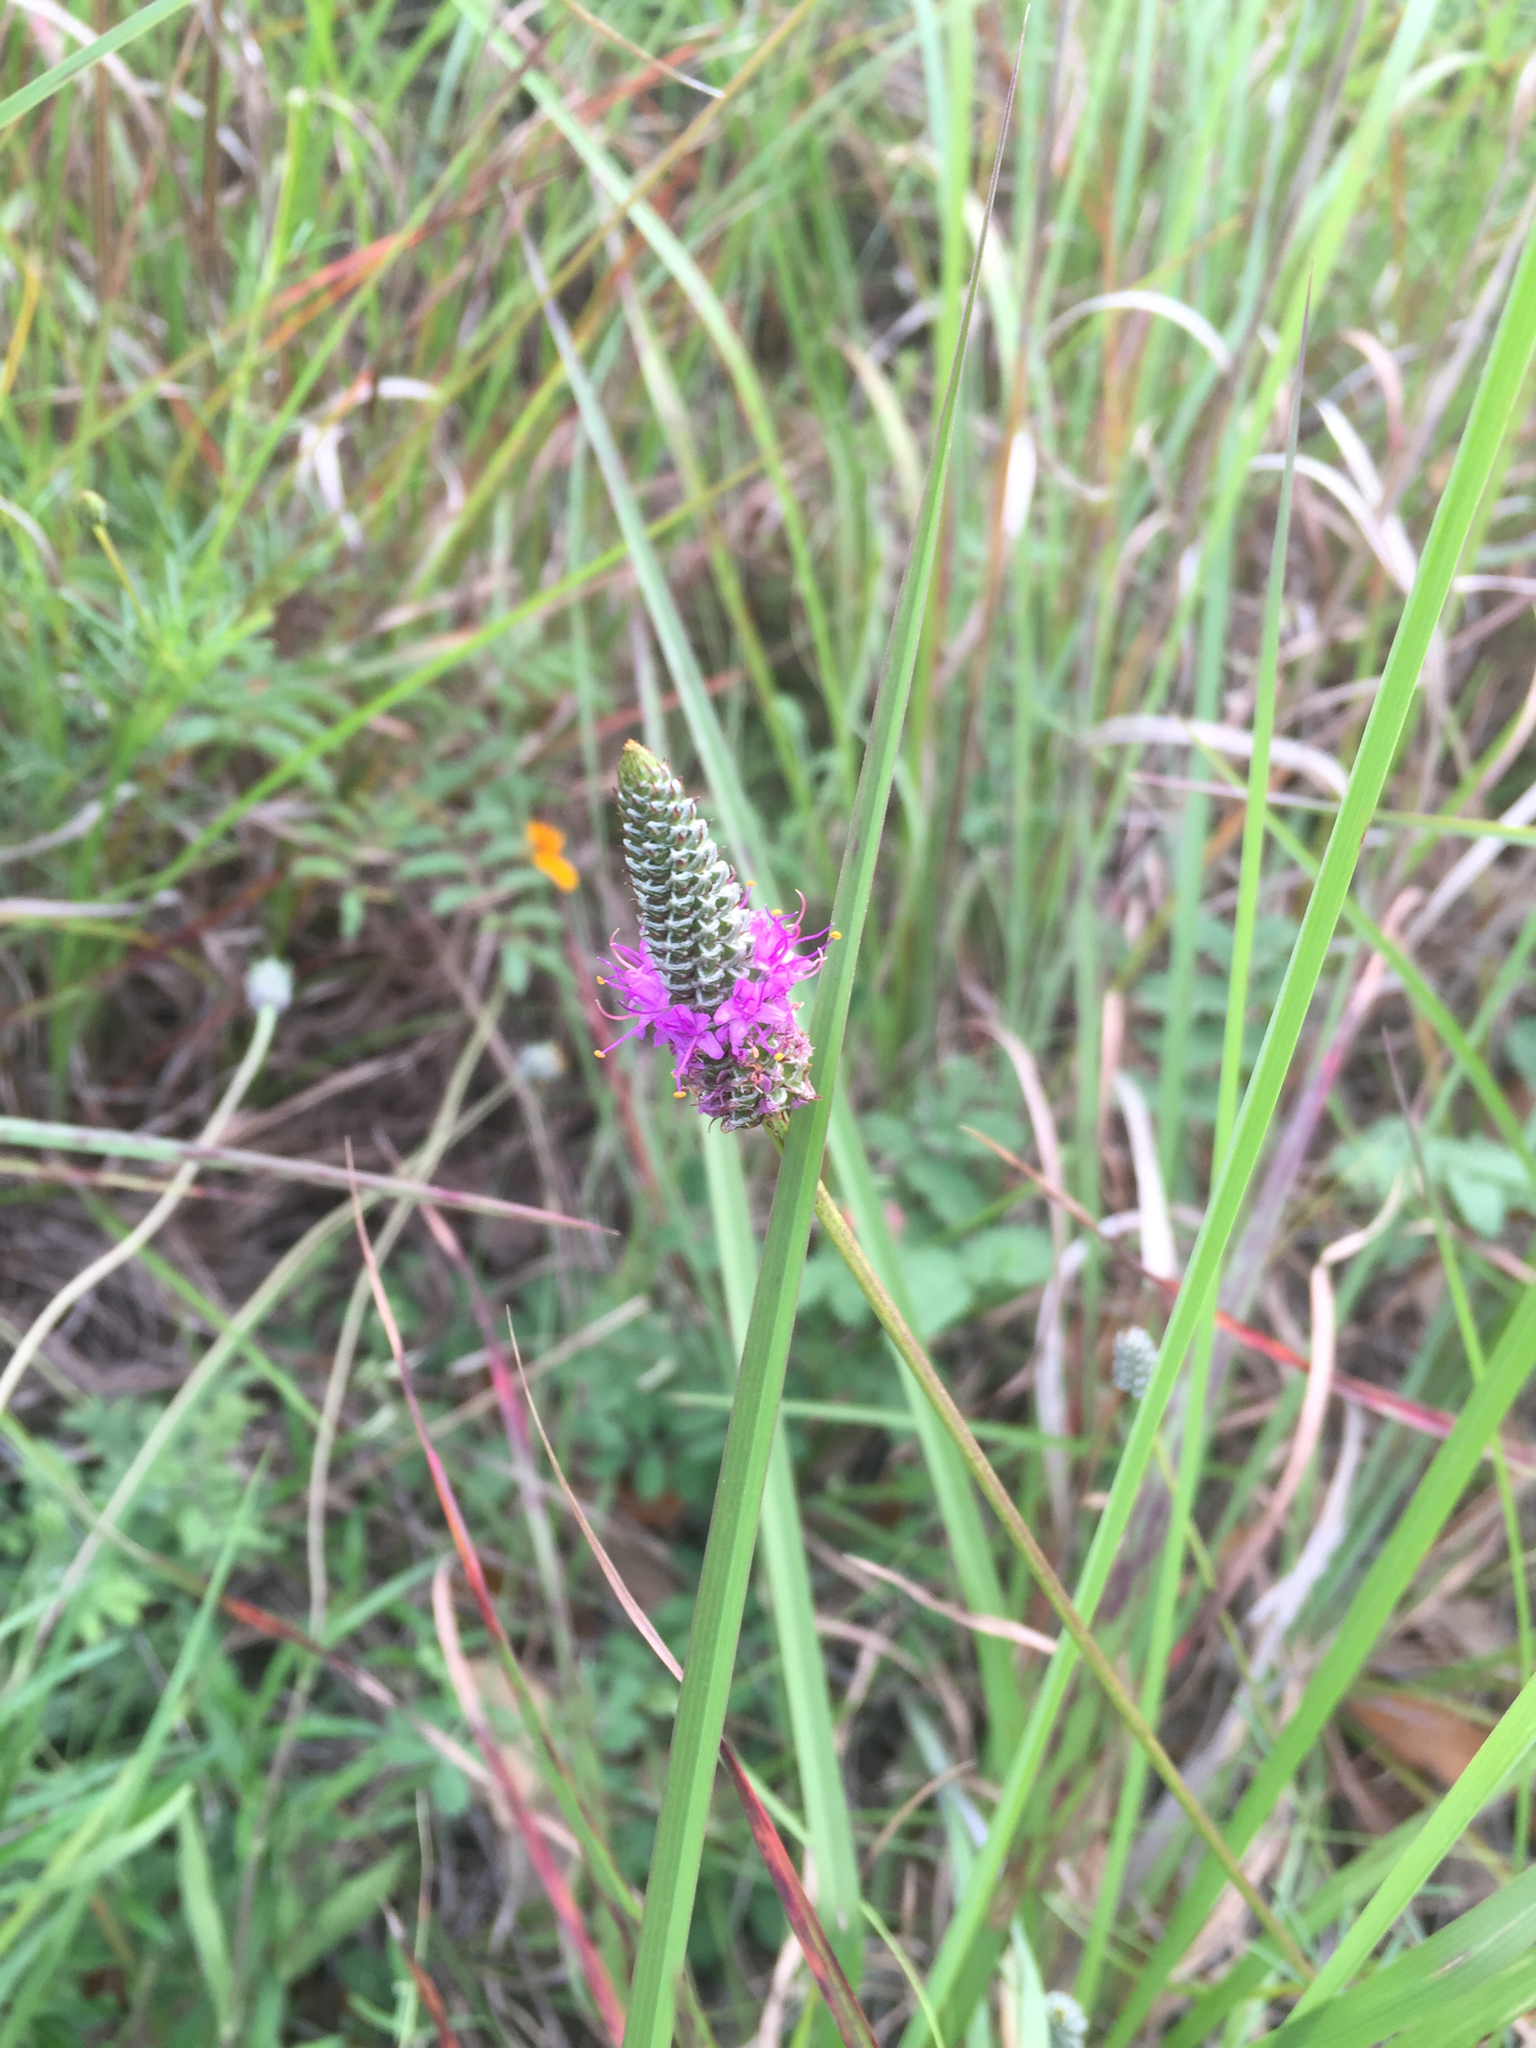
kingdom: Plantae
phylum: Tracheophyta
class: Magnoliopsida
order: Fabales
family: Fabaceae
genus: Dalea
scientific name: Dalea tenuis
